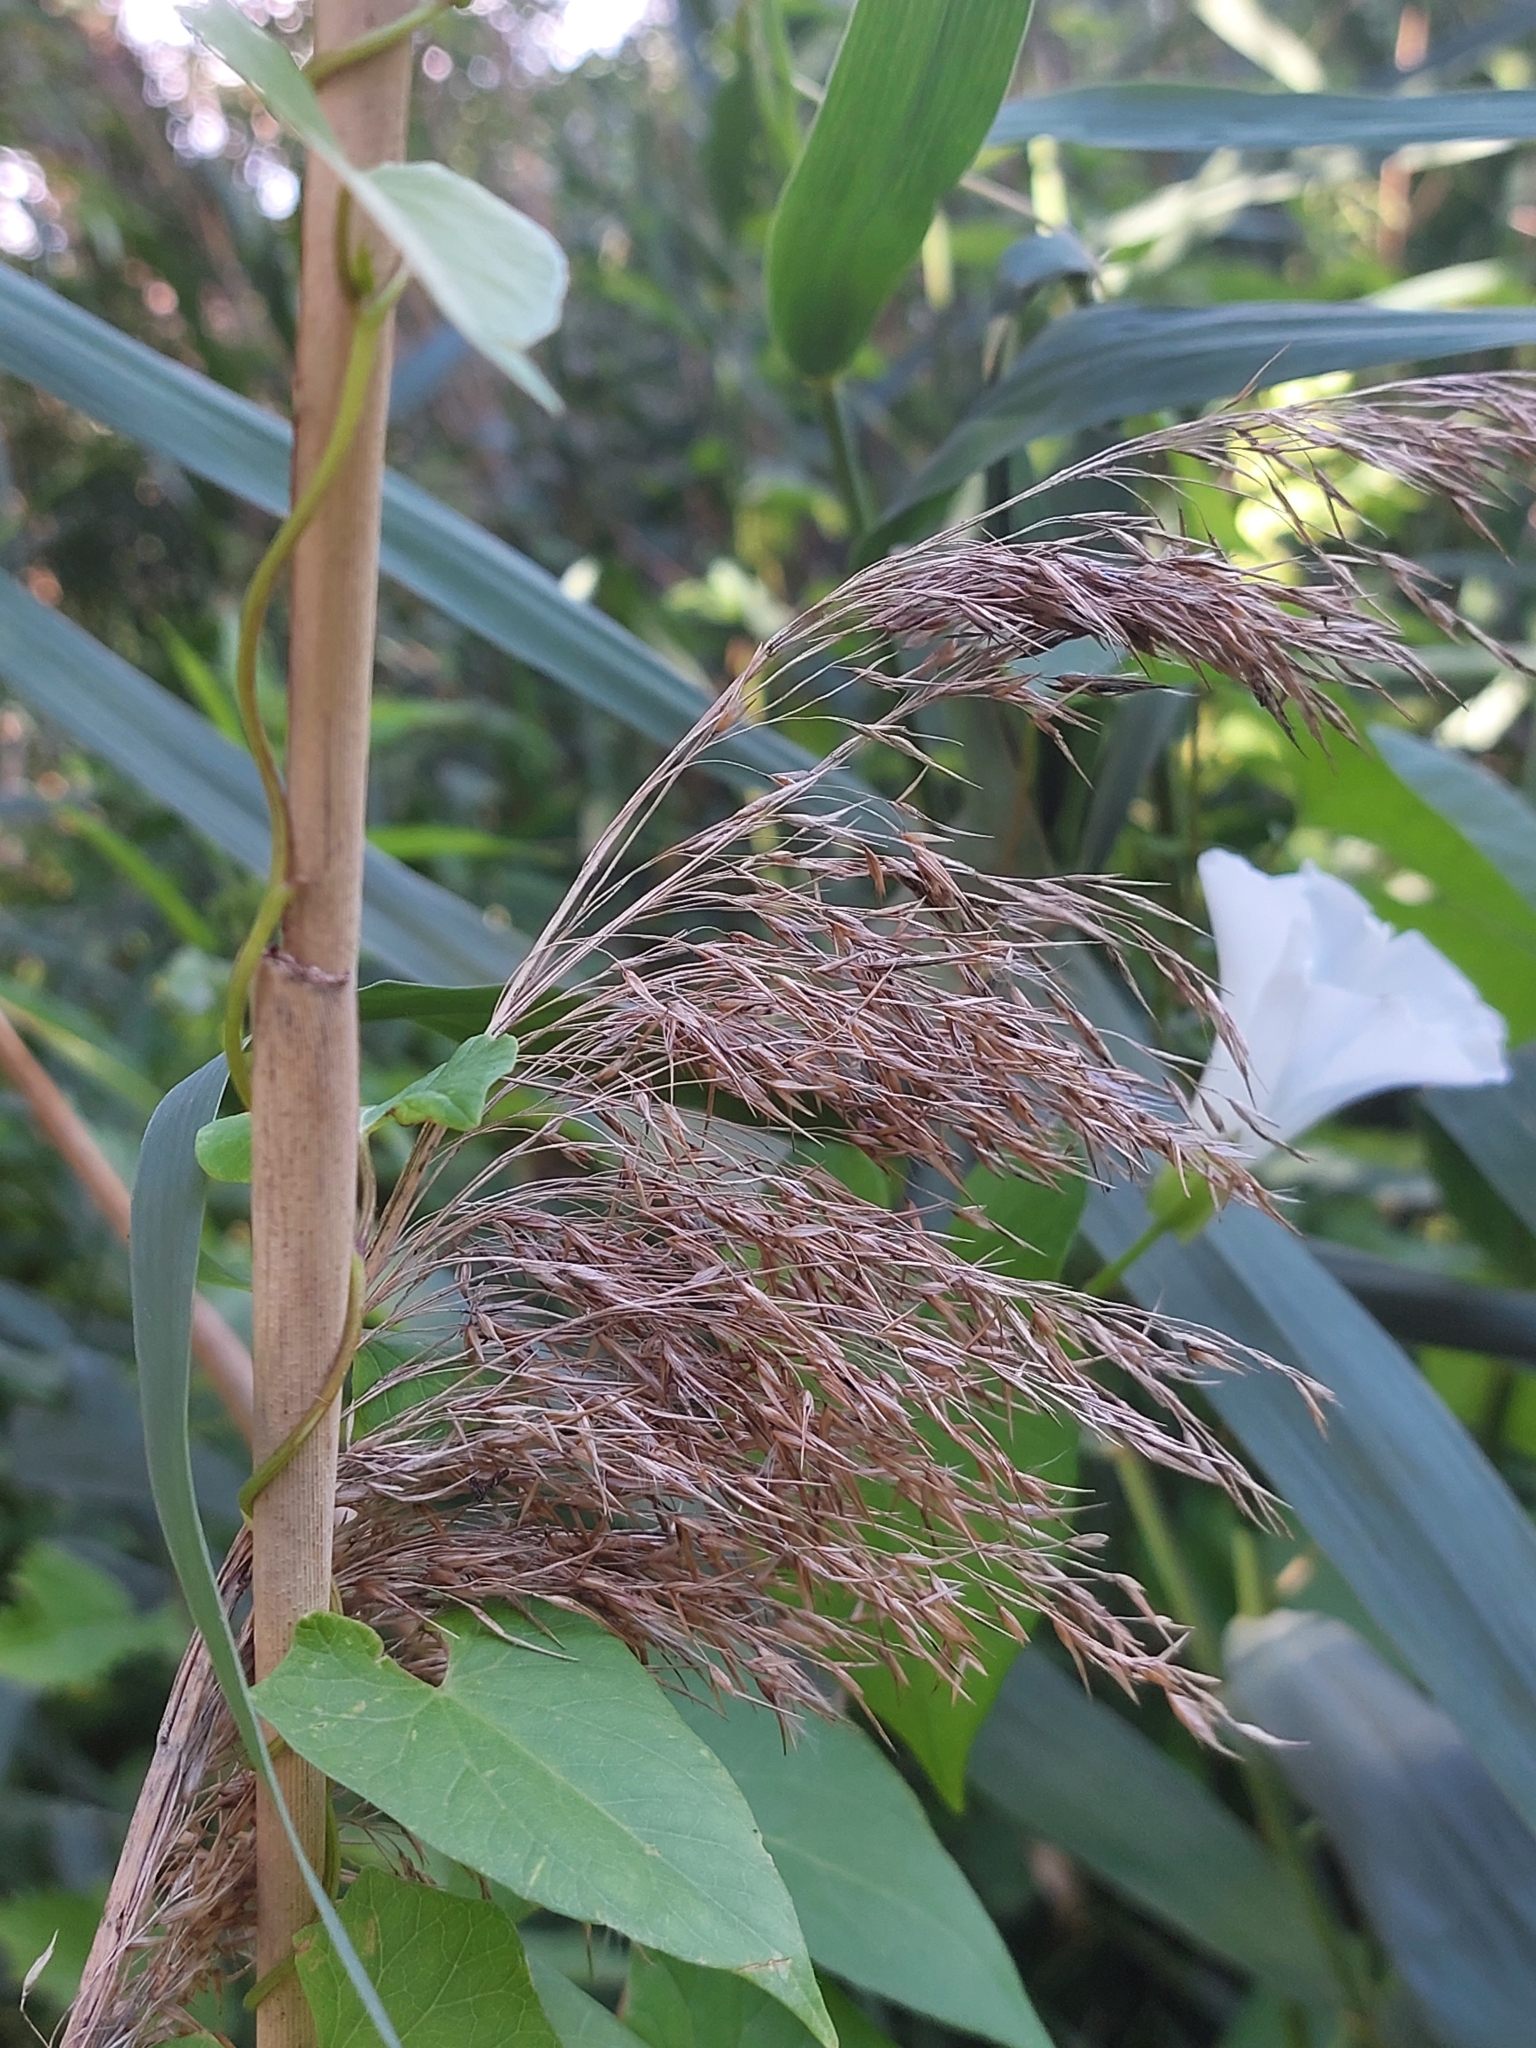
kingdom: Plantae
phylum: Tracheophyta
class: Liliopsida
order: Poales
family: Poaceae
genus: Phragmites
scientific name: Phragmites australis
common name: Common reed
